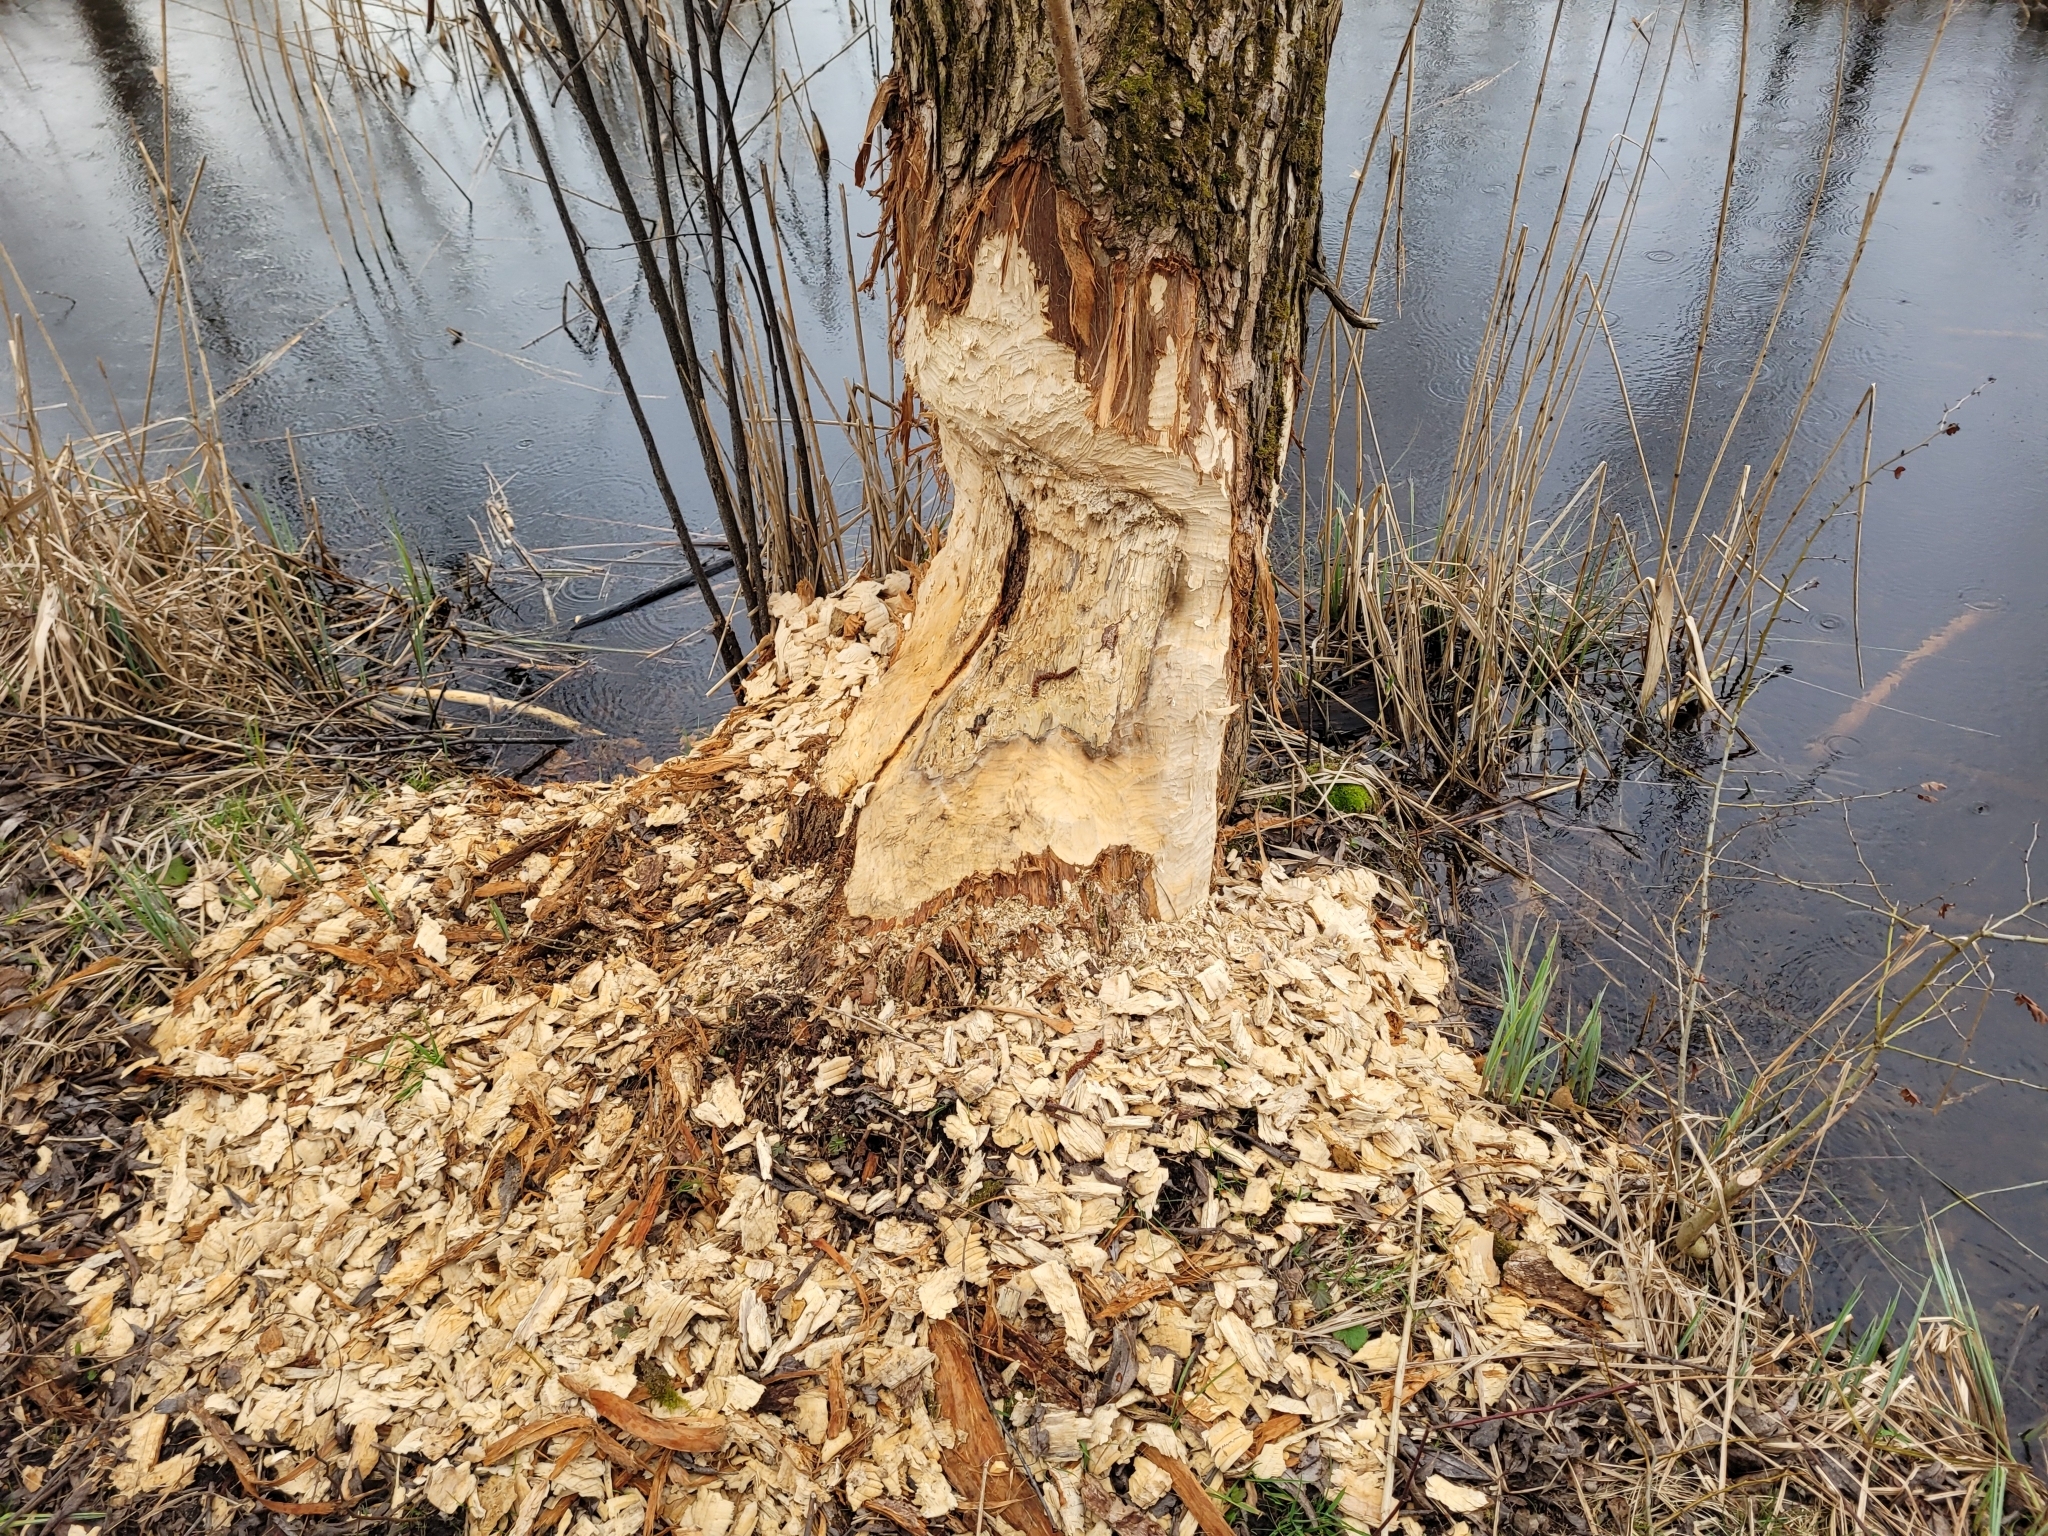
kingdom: Animalia
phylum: Chordata
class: Mammalia
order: Rodentia
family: Castoridae
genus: Castor
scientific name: Castor fiber
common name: Eurasian beaver
